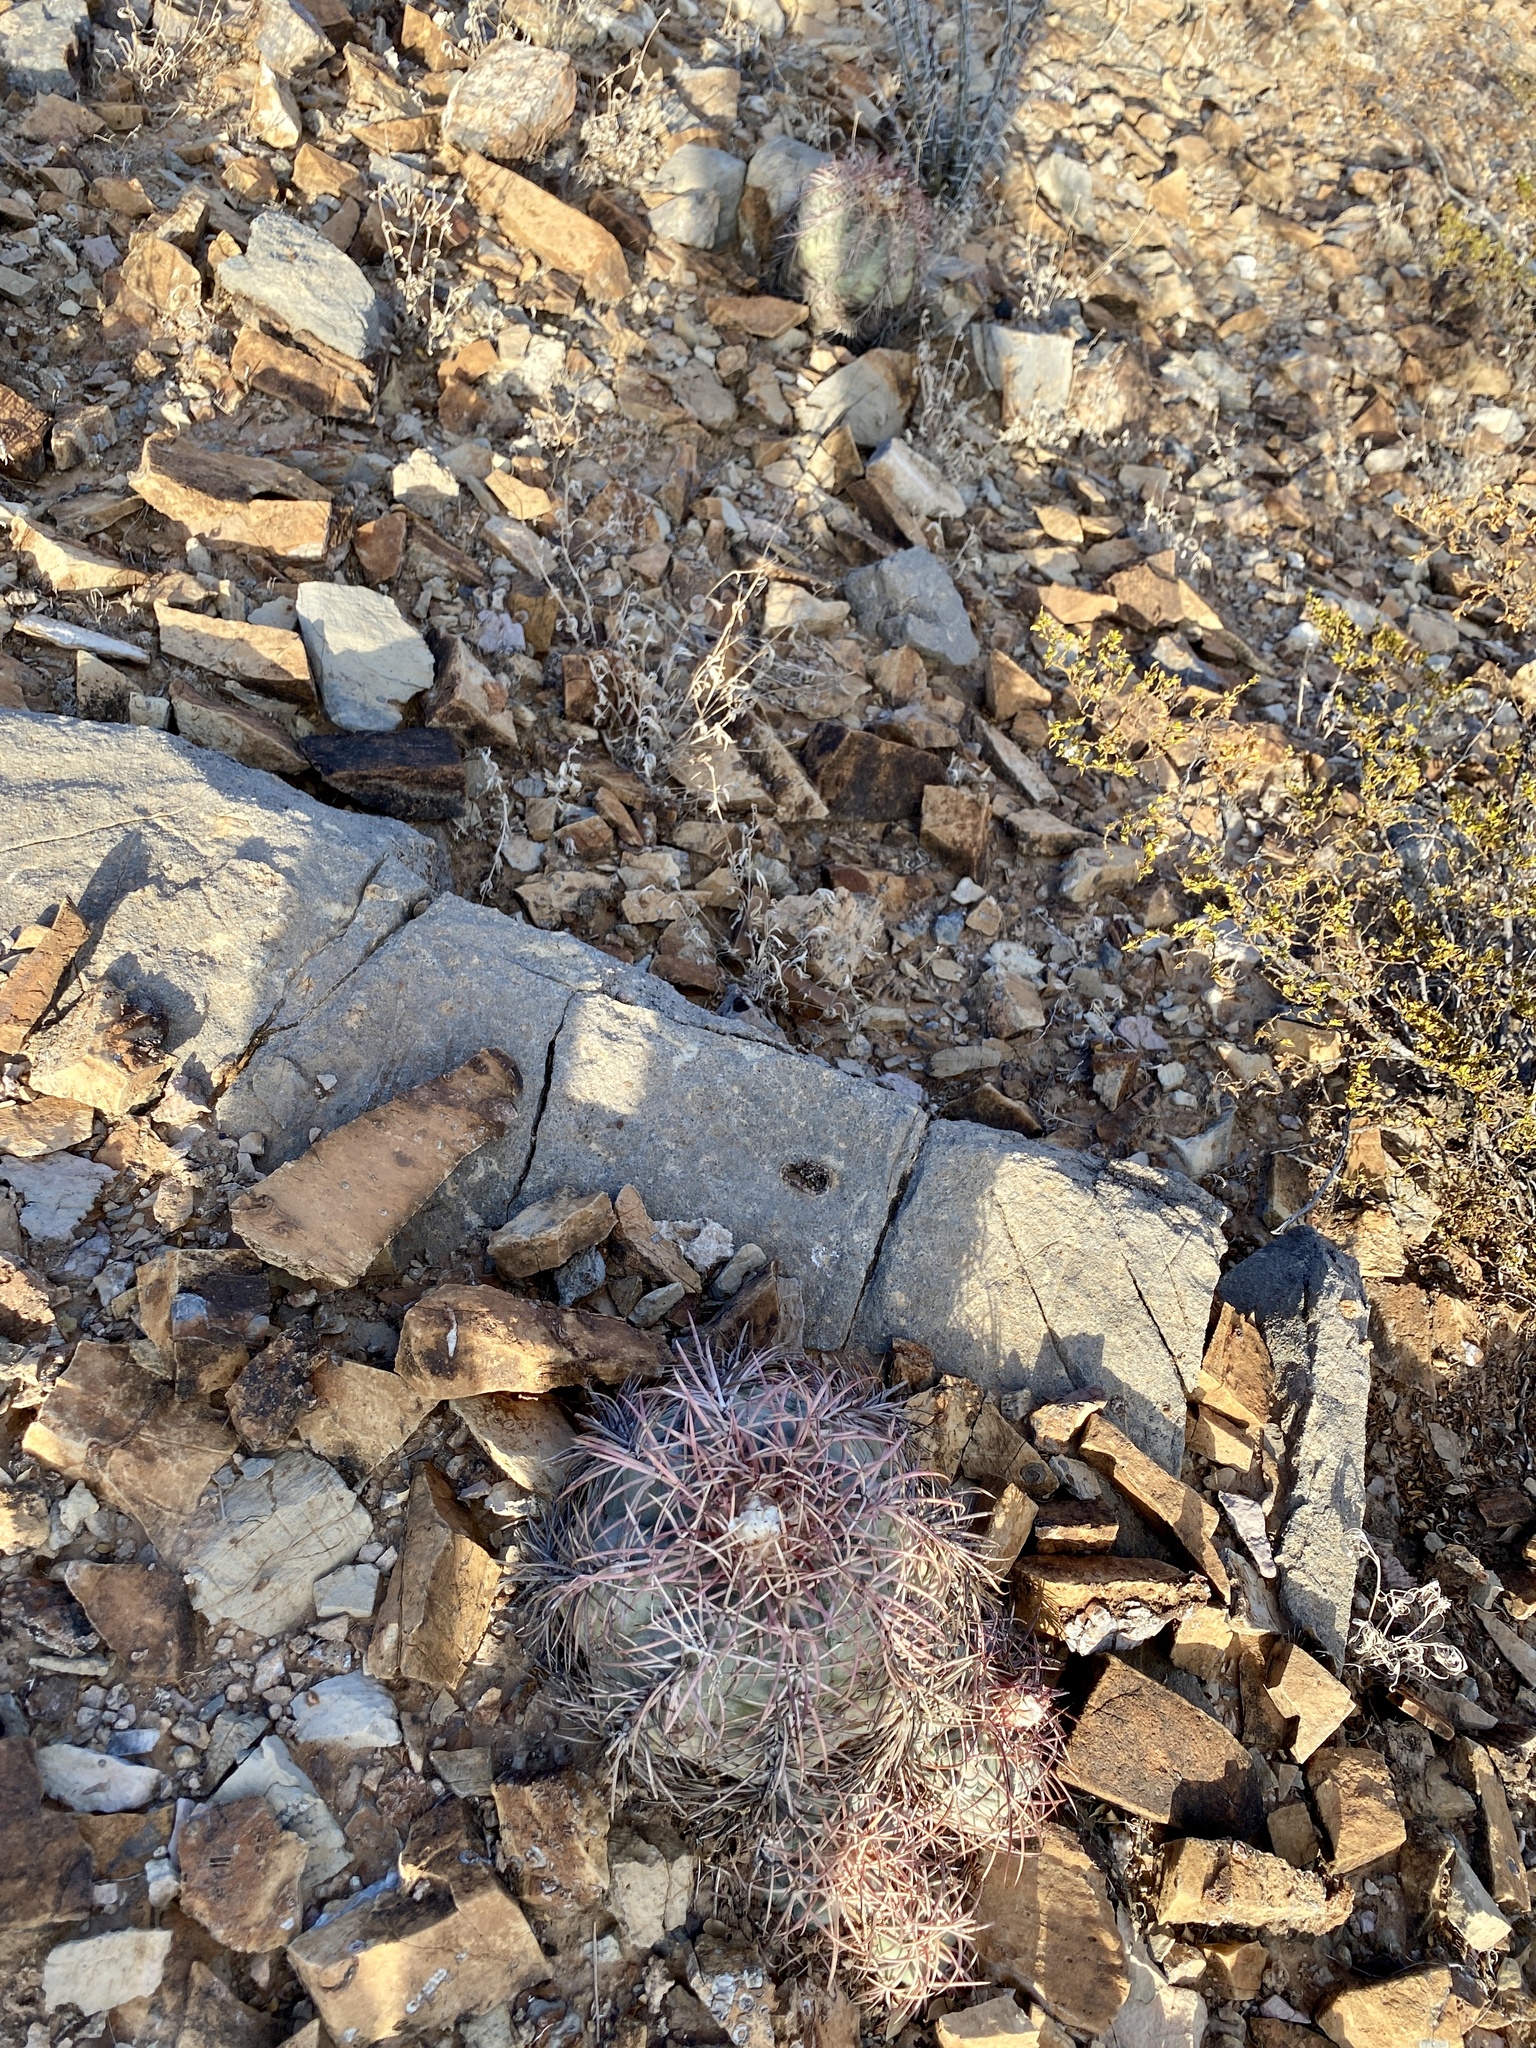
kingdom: Plantae
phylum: Tracheophyta
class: Magnoliopsida
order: Caryophyllales
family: Cactaceae
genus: Echinocactus
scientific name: Echinocactus horizonthalonius
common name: Devilshead
